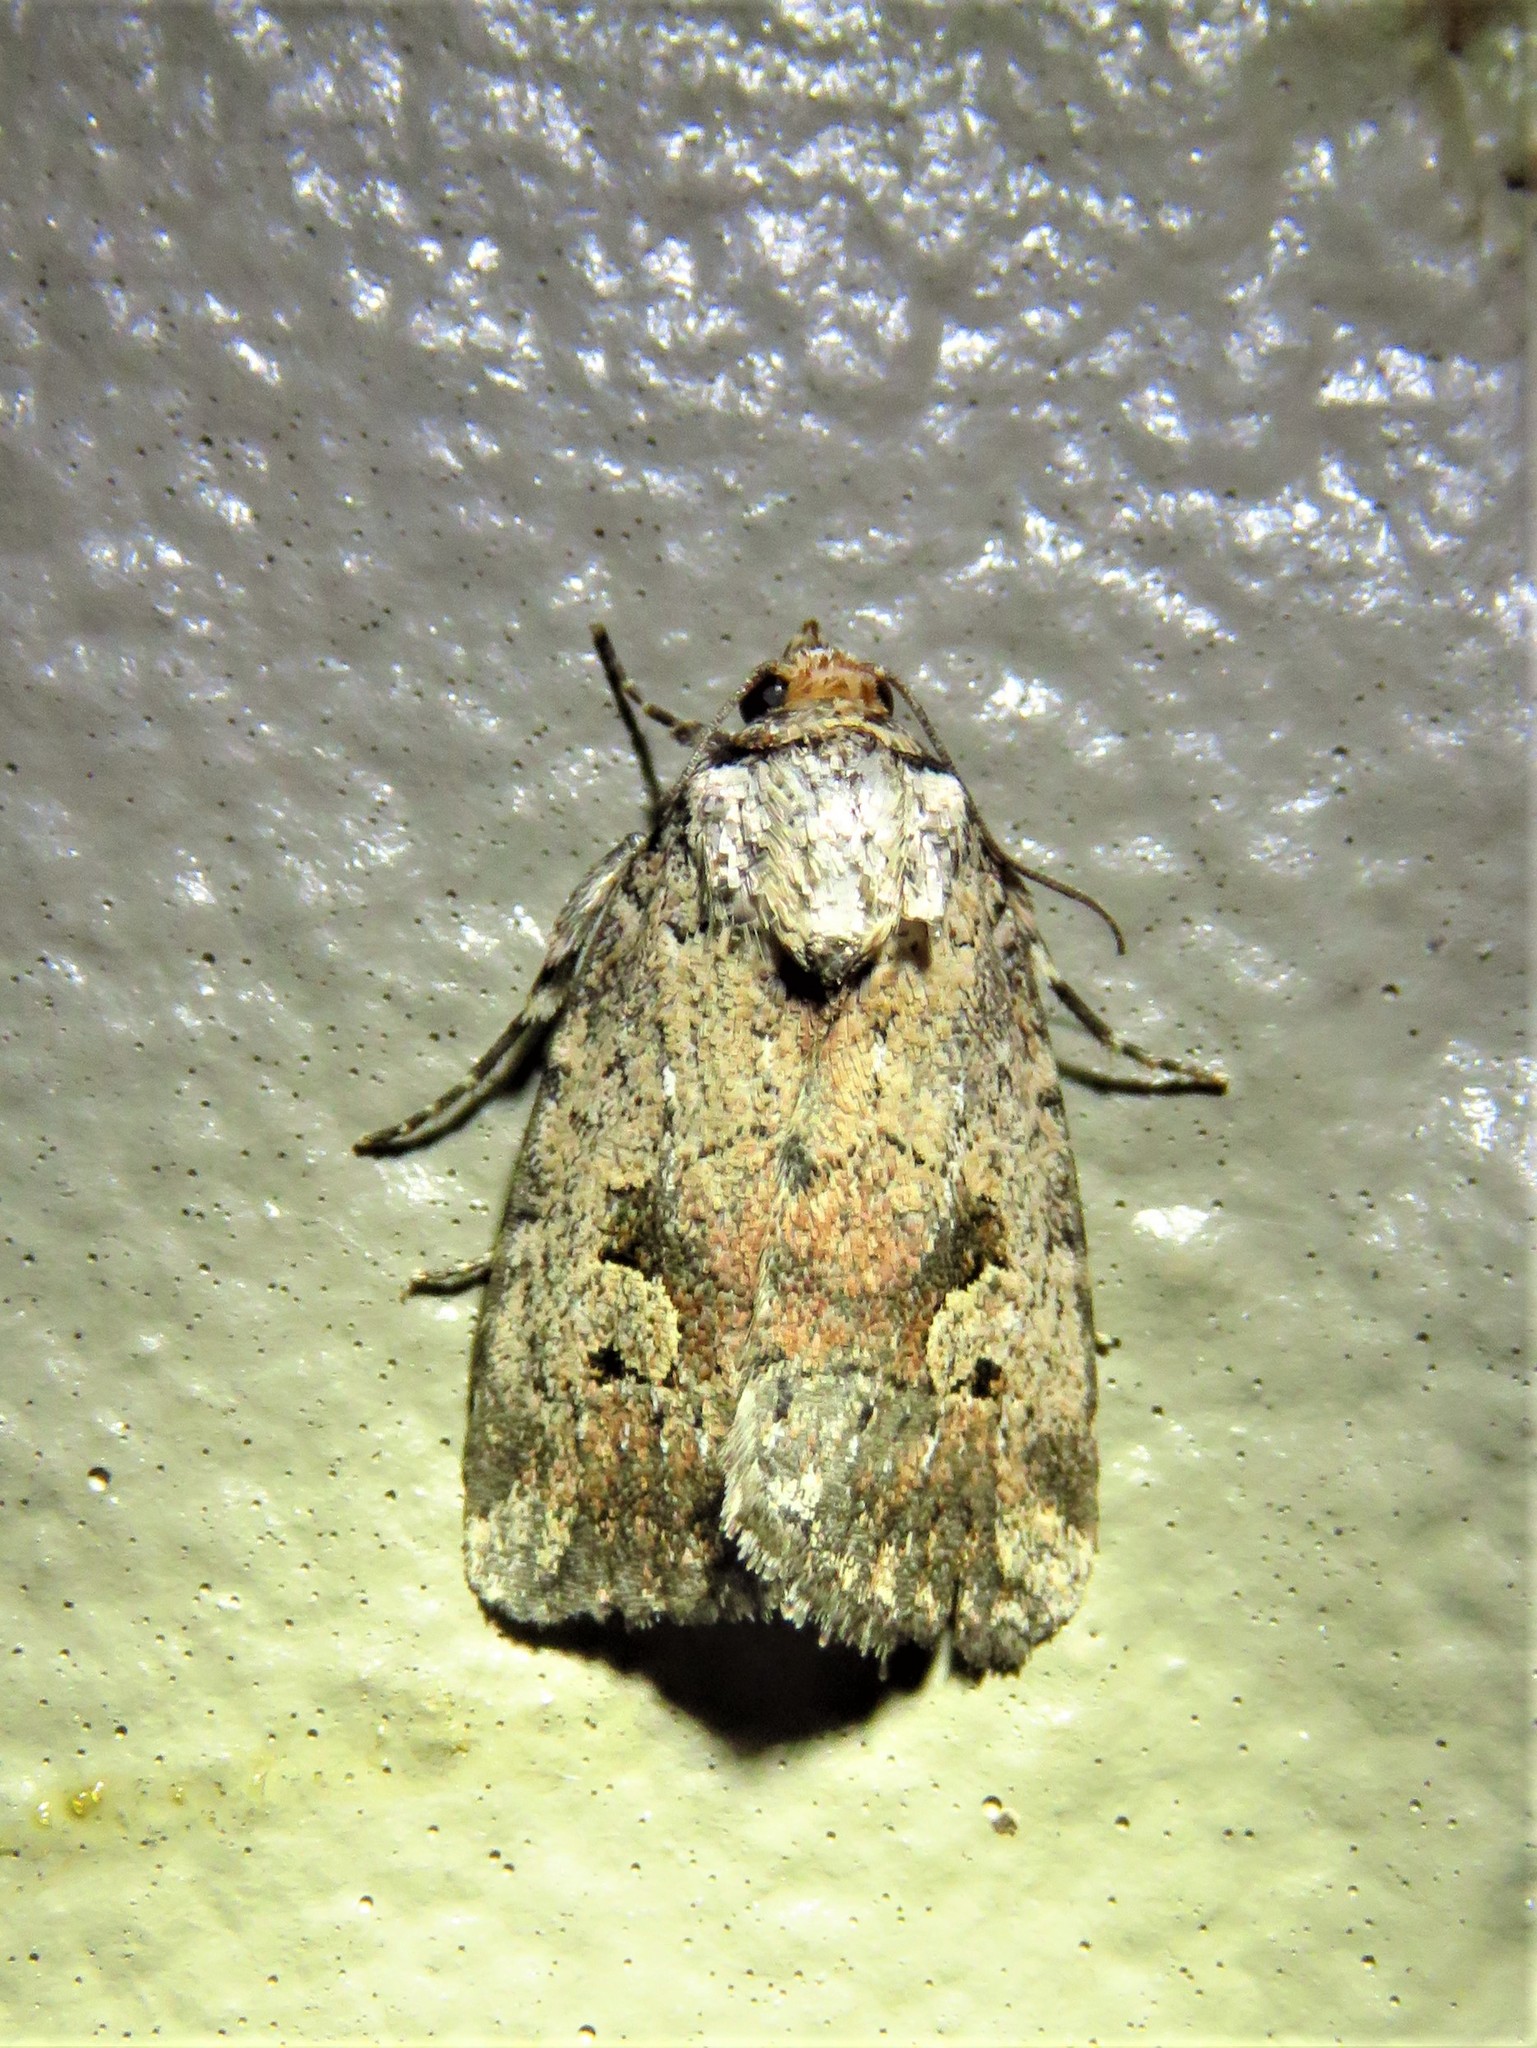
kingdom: Animalia
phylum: Arthropoda
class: Insecta
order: Lepidoptera
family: Noctuidae
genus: Elaphria
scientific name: Elaphria festivoides
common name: Festive midget
